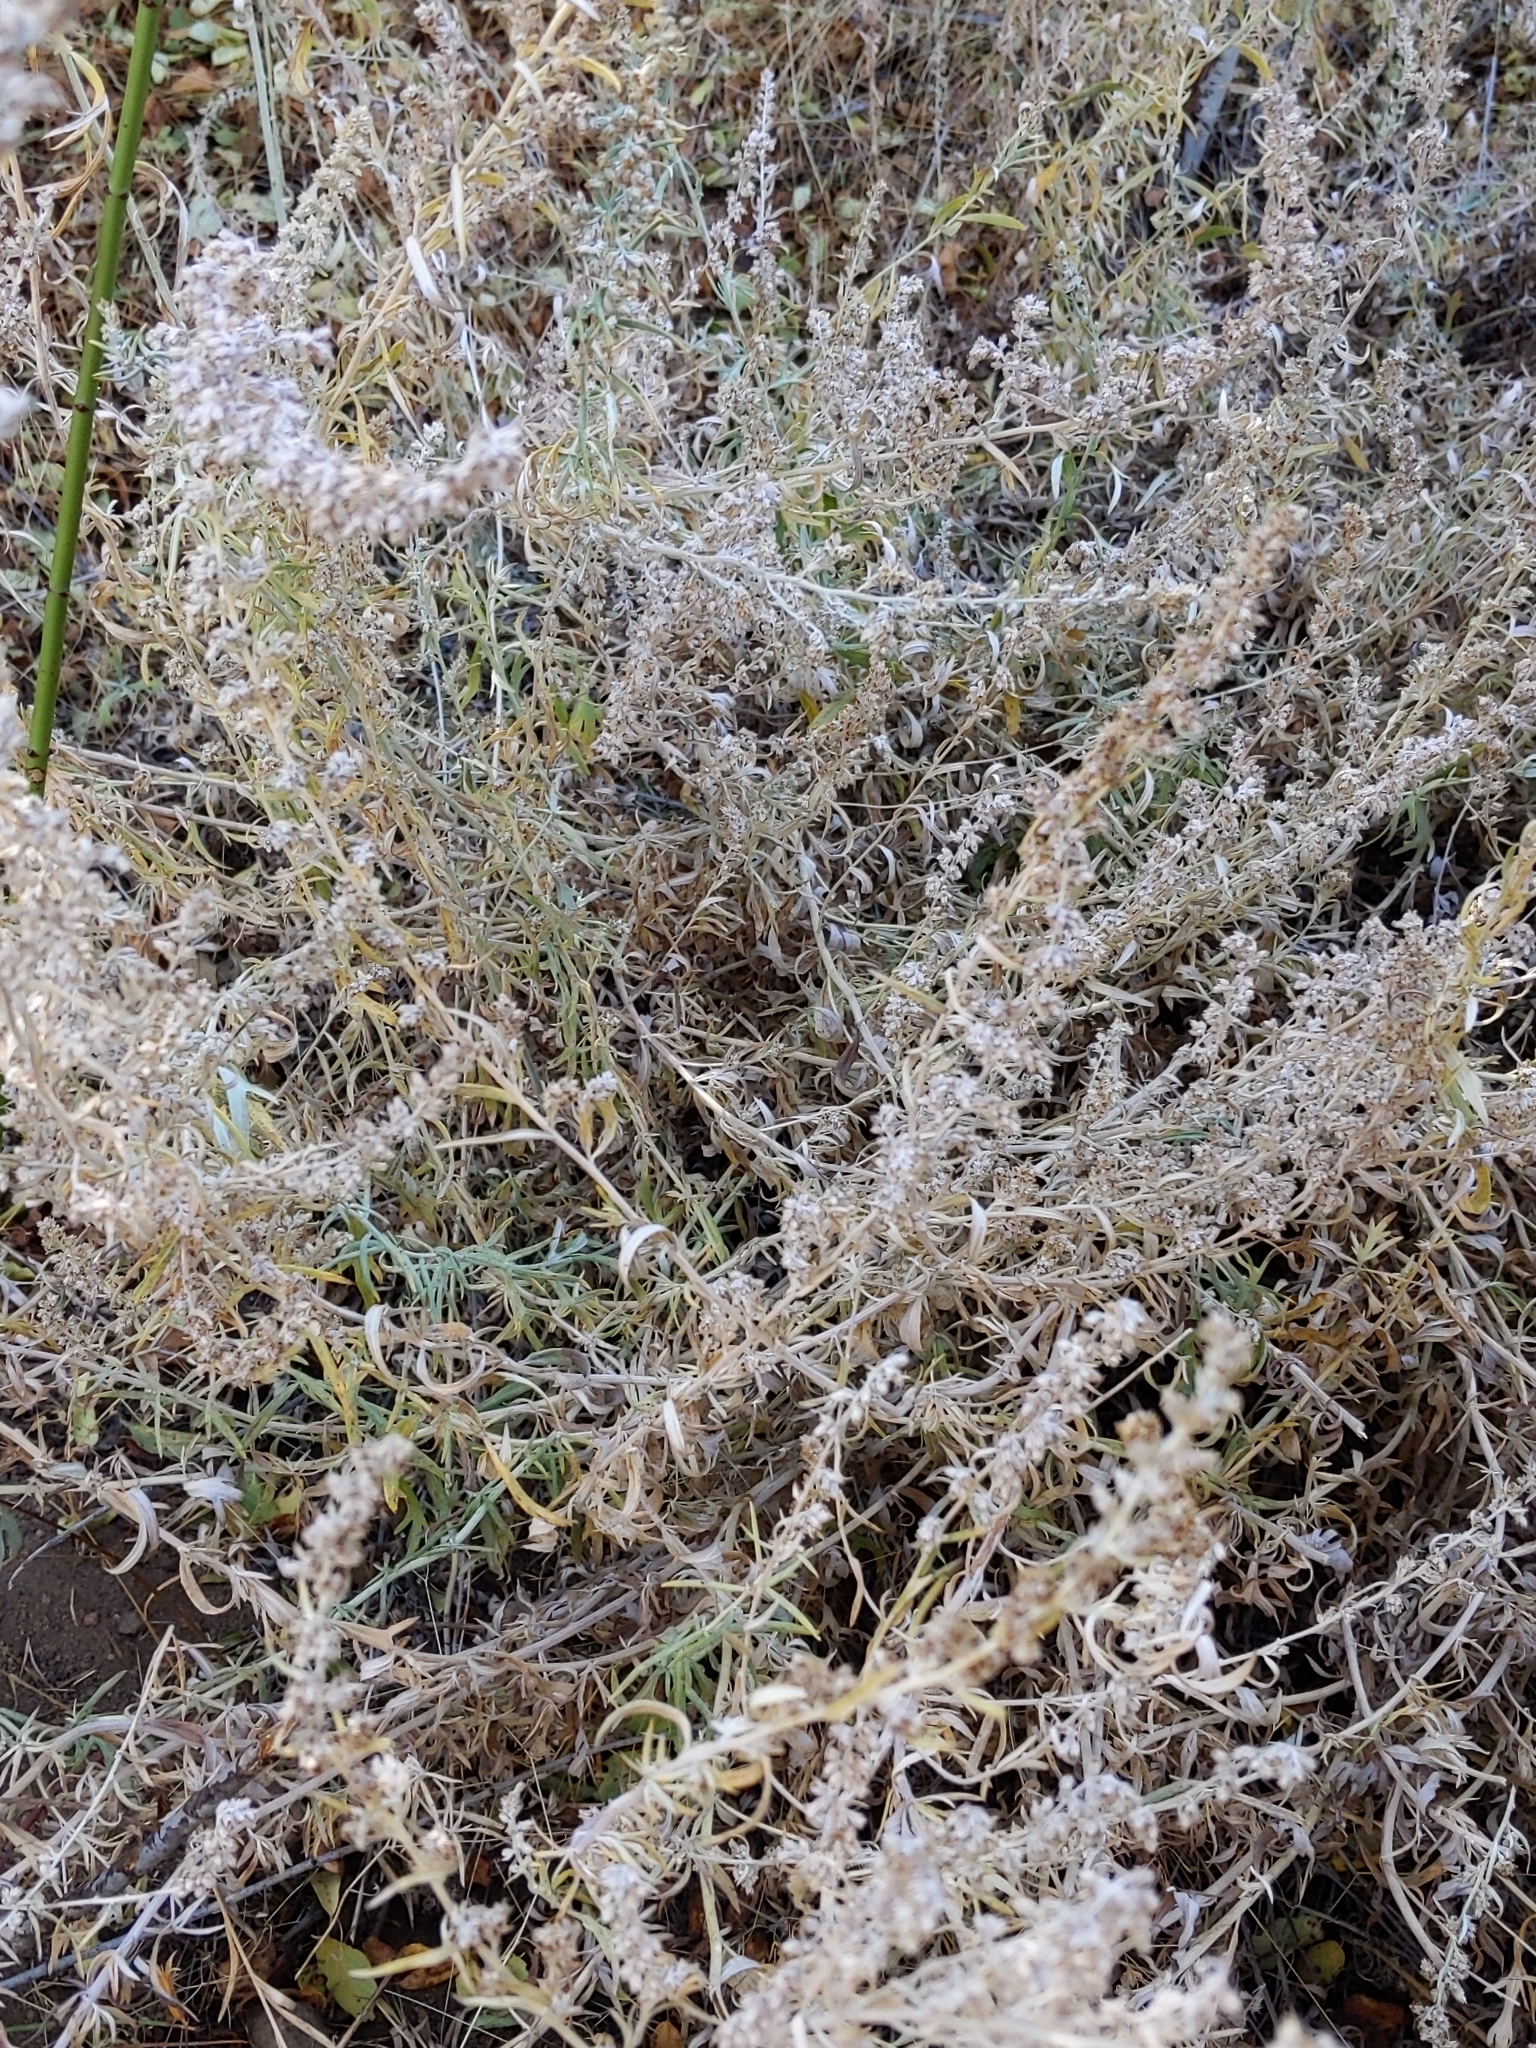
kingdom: Plantae
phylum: Tracheophyta
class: Magnoliopsida
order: Asterales
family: Asteraceae
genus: Artemisia
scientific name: Artemisia ludoviciana
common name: Western mugwort
